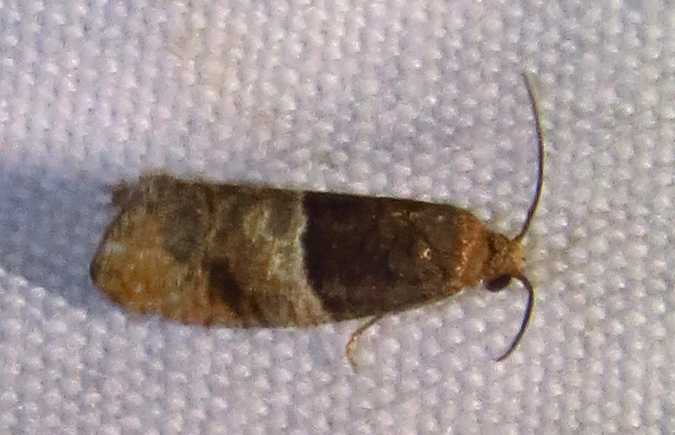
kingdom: Animalia
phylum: Arthropoda
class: Insecta
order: Lepidoptera
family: Tortricidae
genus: Larisa
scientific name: Larisa subsolana
